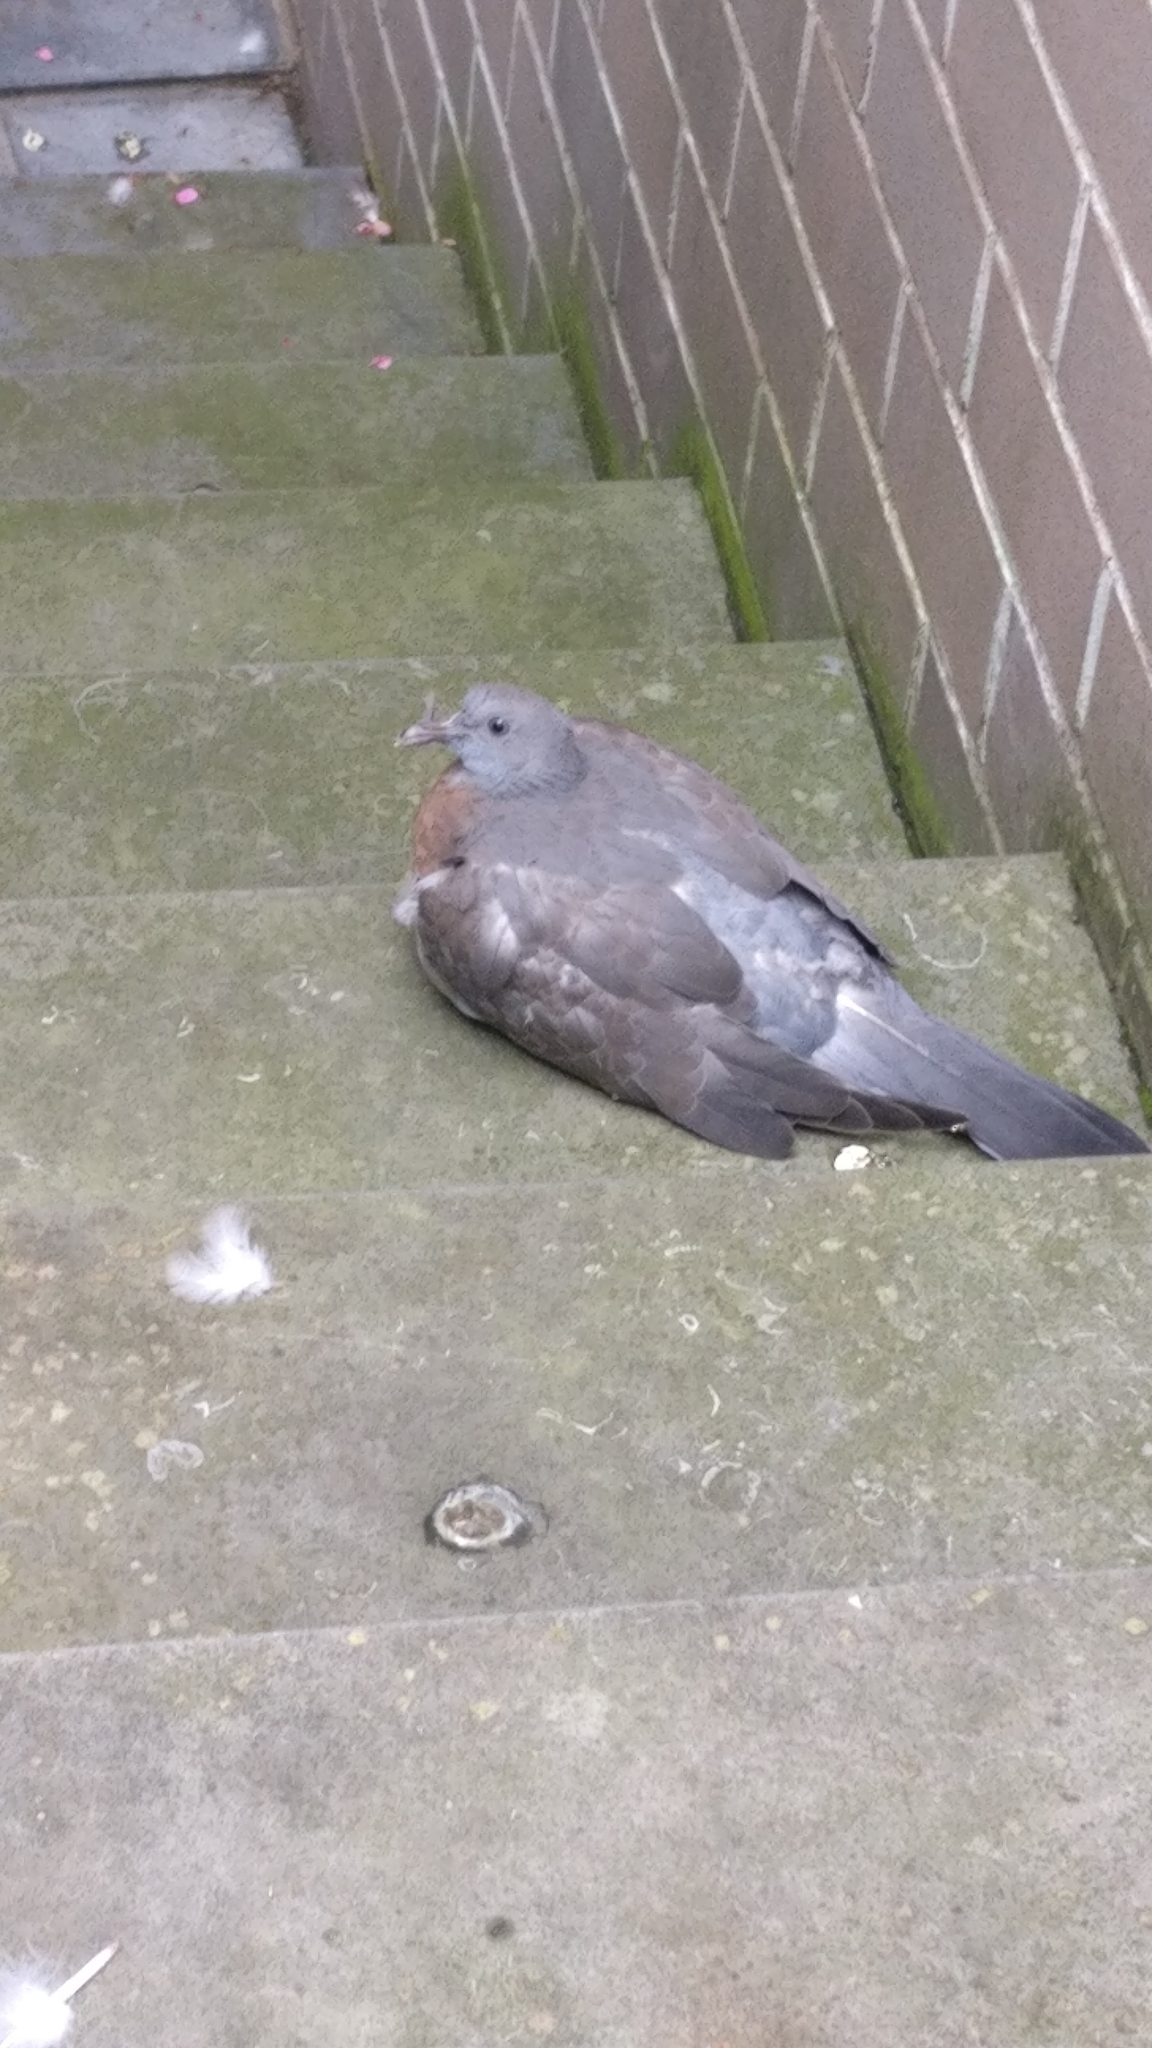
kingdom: Animalia
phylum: Chordata
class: Aves
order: Columbiformes
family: Columbidae
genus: Columba
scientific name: Columba palumbus
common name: Common wood pigeon
